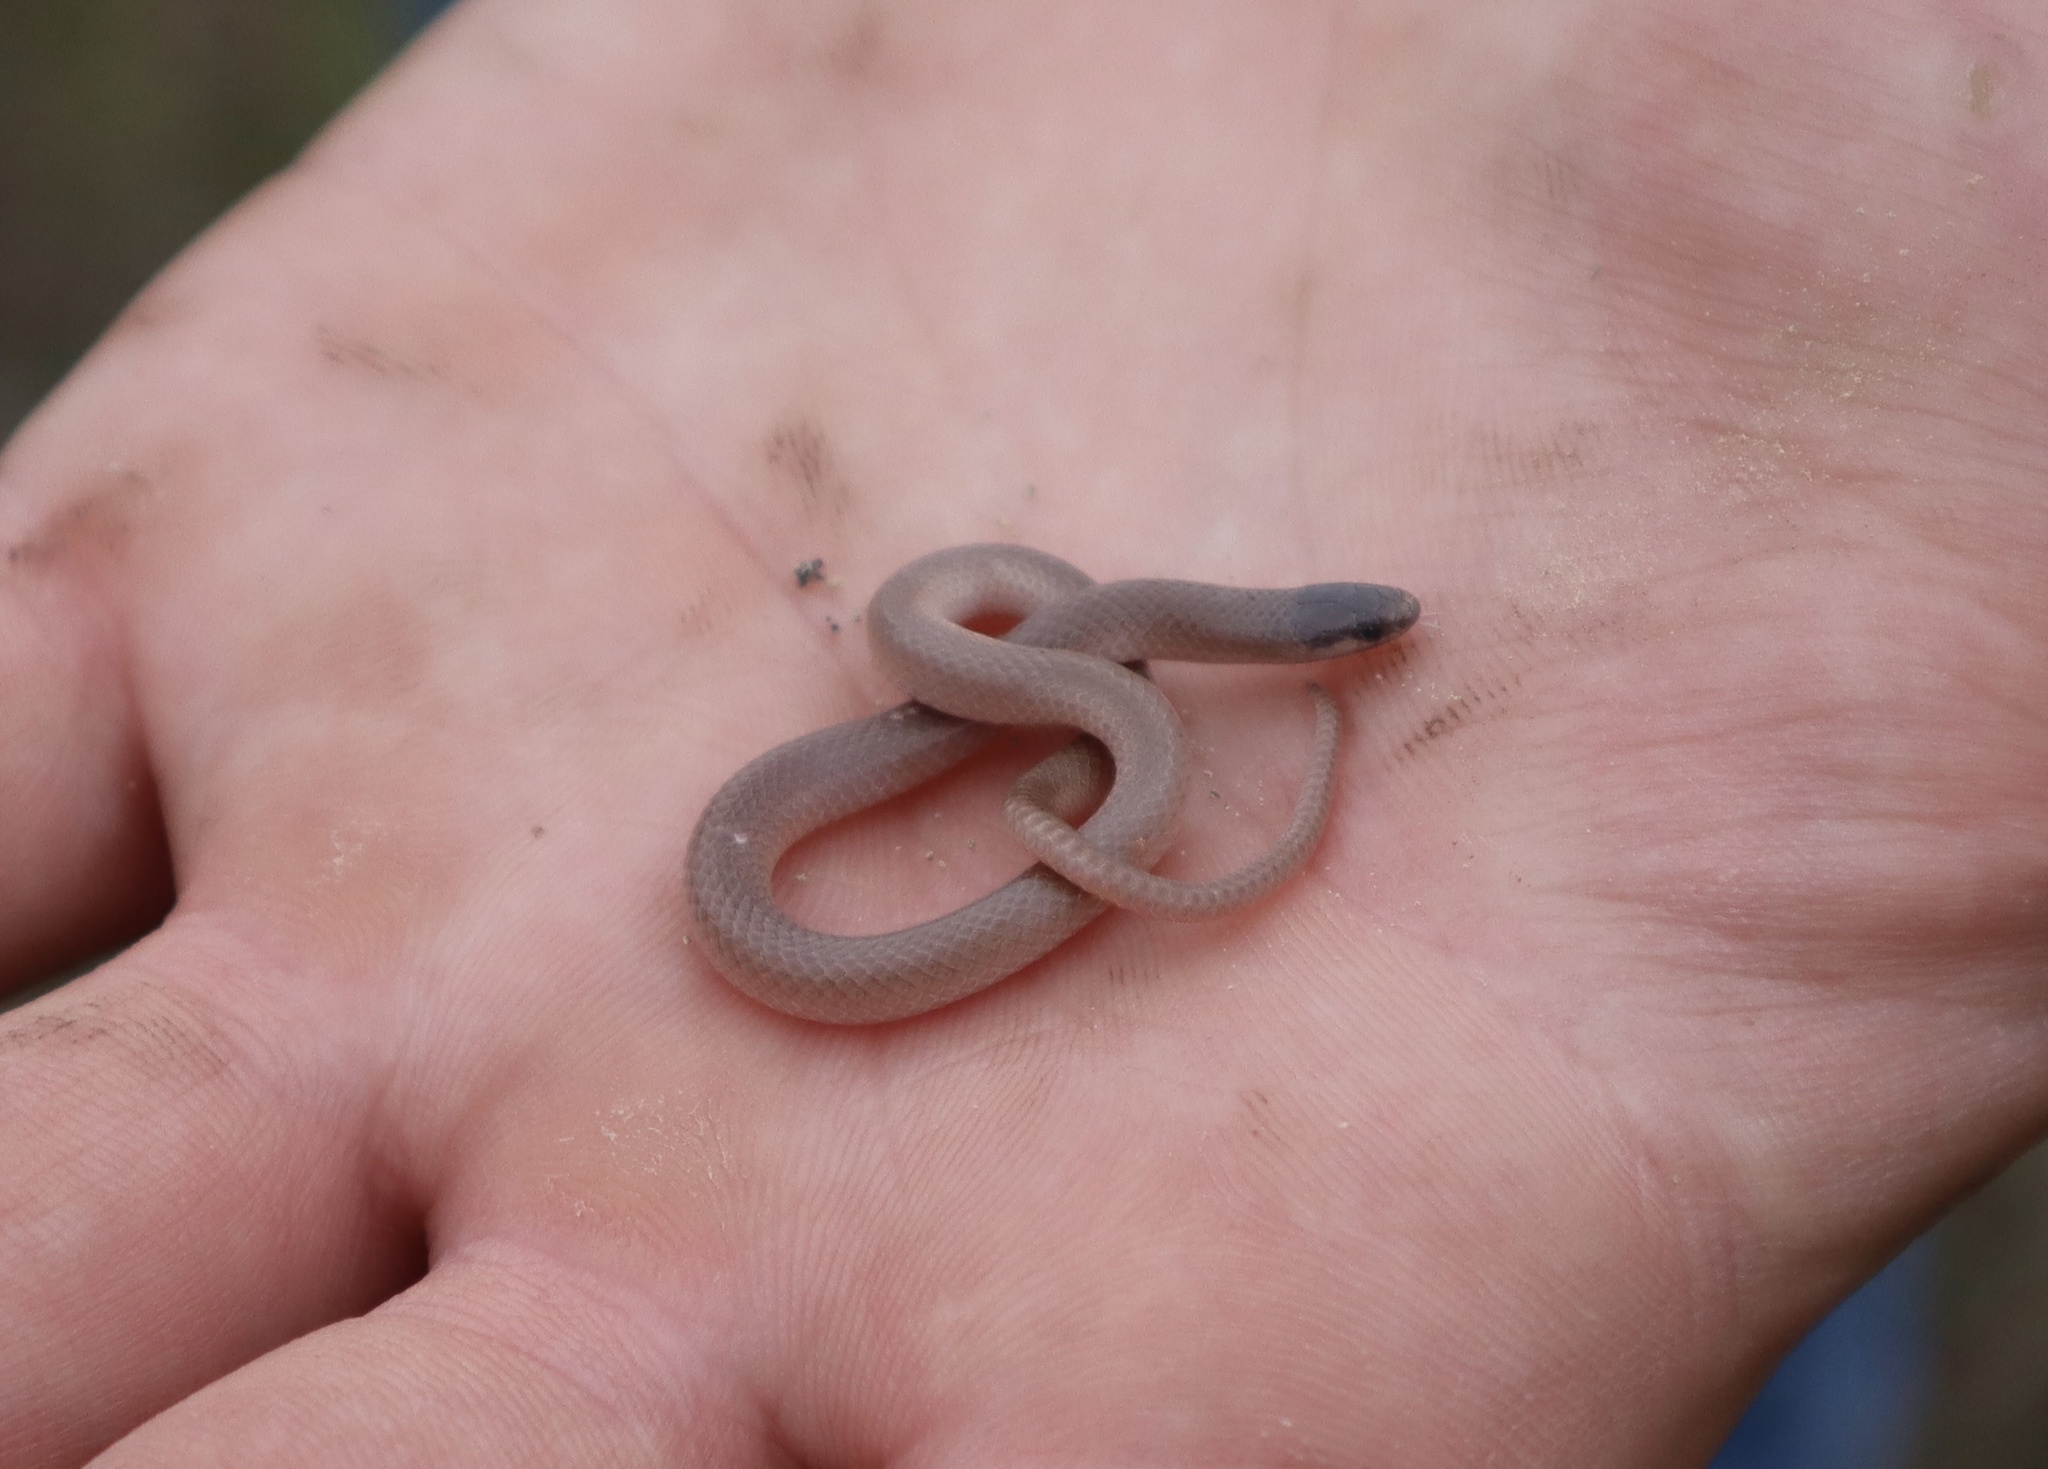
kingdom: Animalia
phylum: Chordata
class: Squamata
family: Colubridae
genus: Tantilla
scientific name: Tantilla gracilis
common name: Flathead snake
